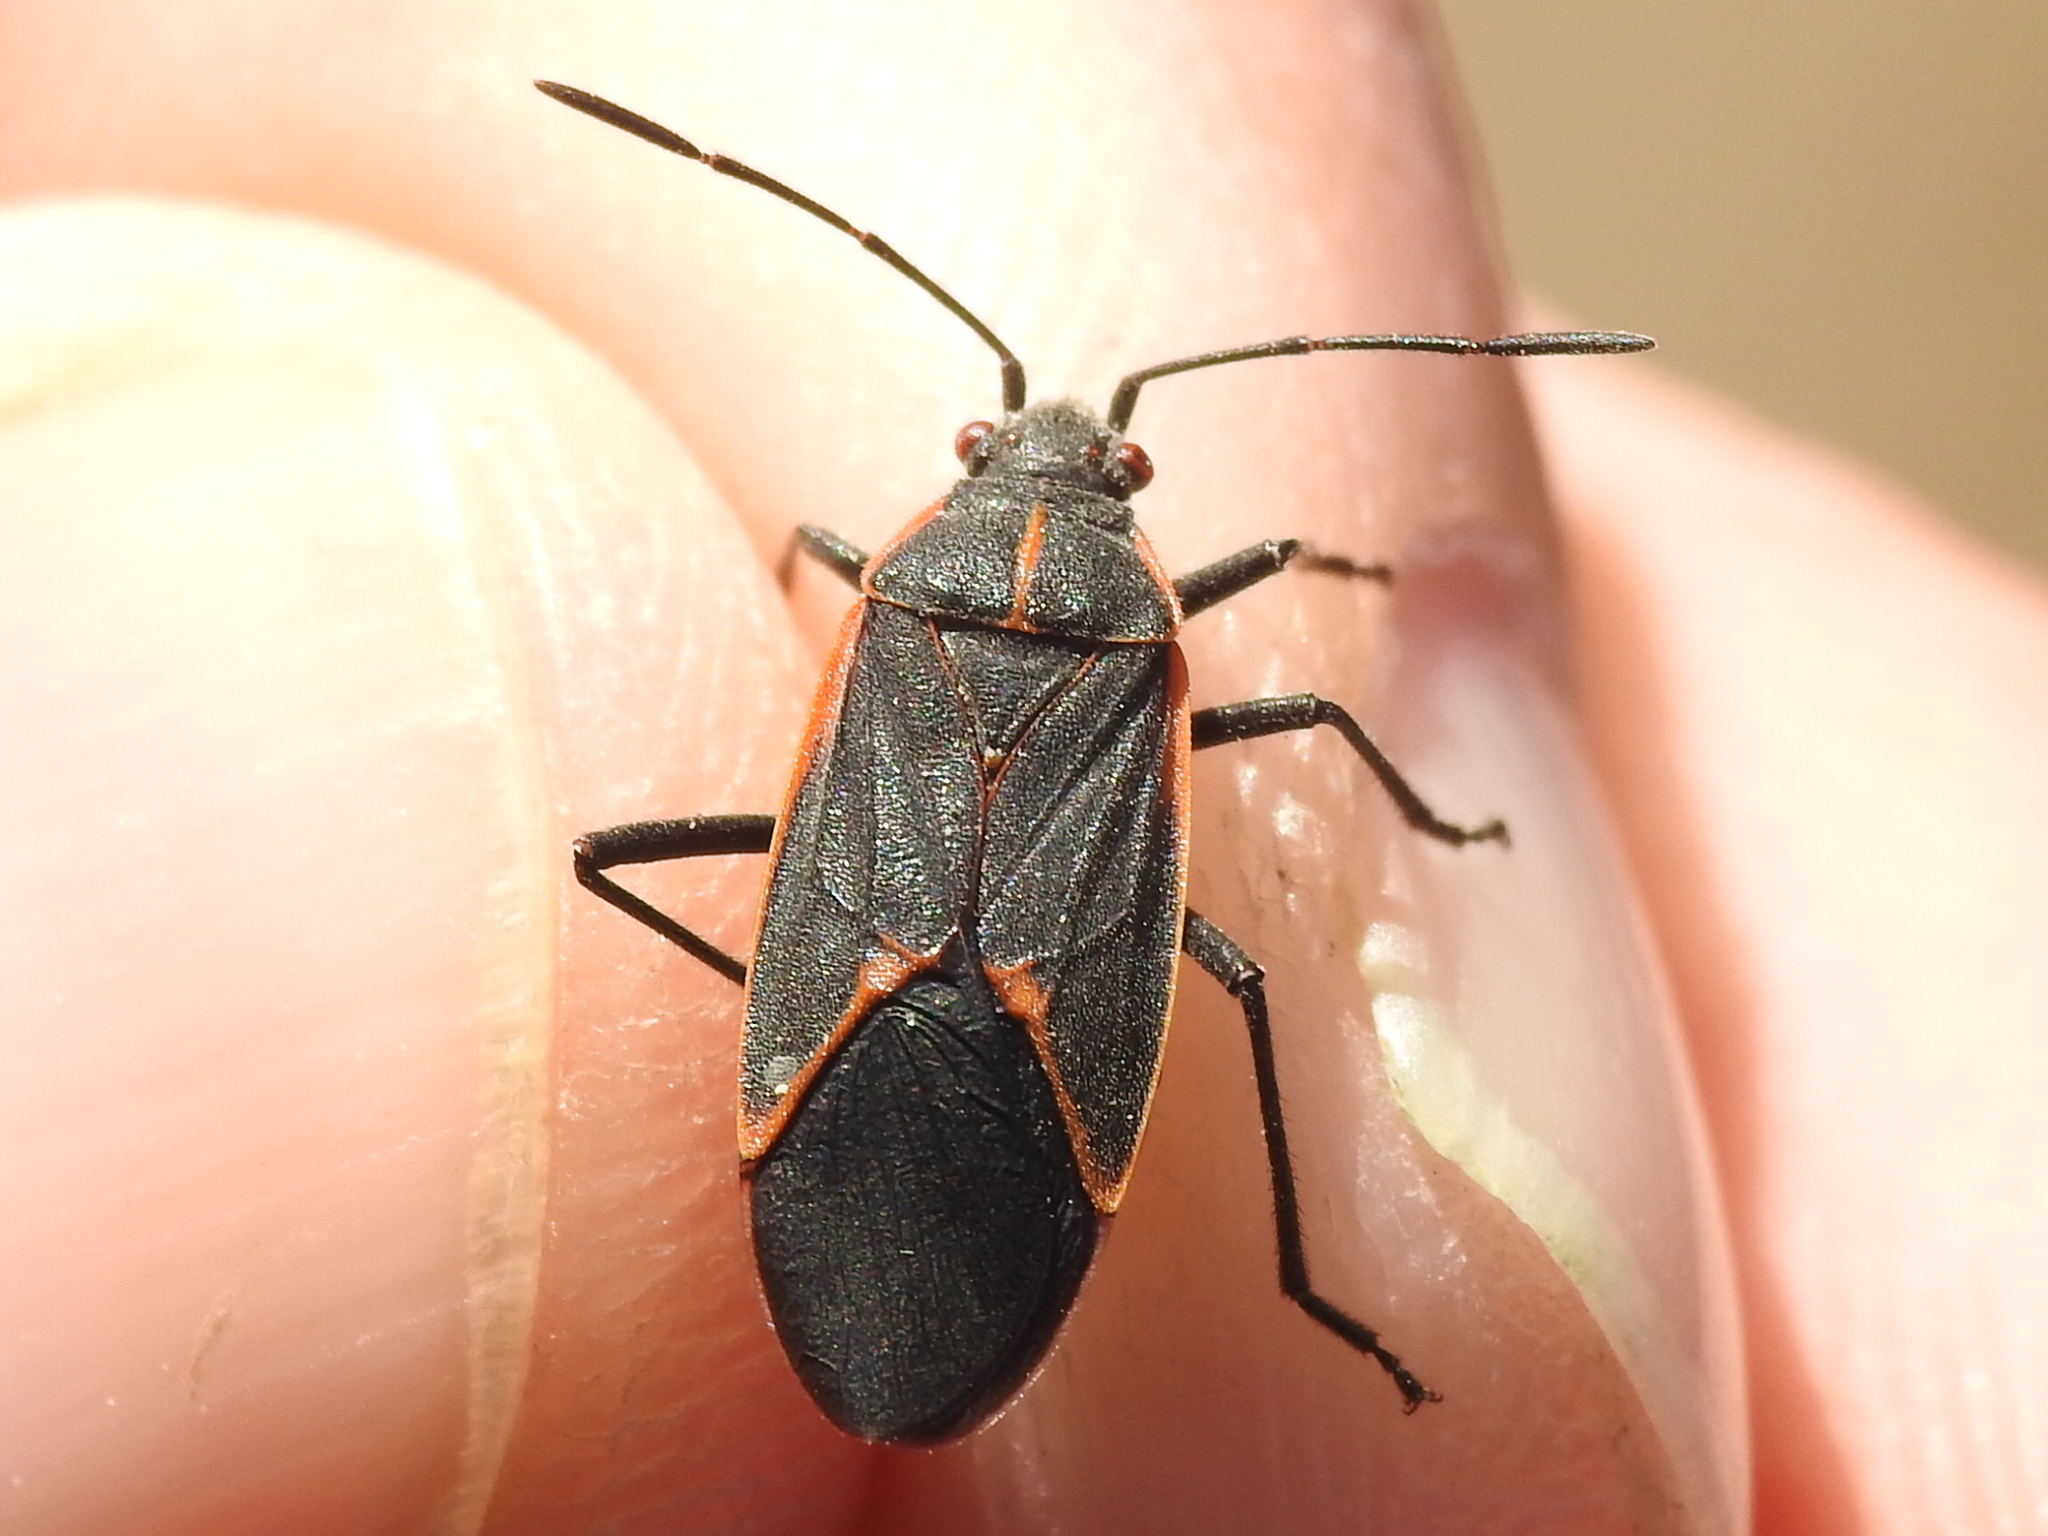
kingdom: Animalia
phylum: Arthropoda
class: Insecta
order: Hemiptera
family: Rhopalidae
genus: Boisea
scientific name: Boisea trivittata
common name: Boxelder bug
